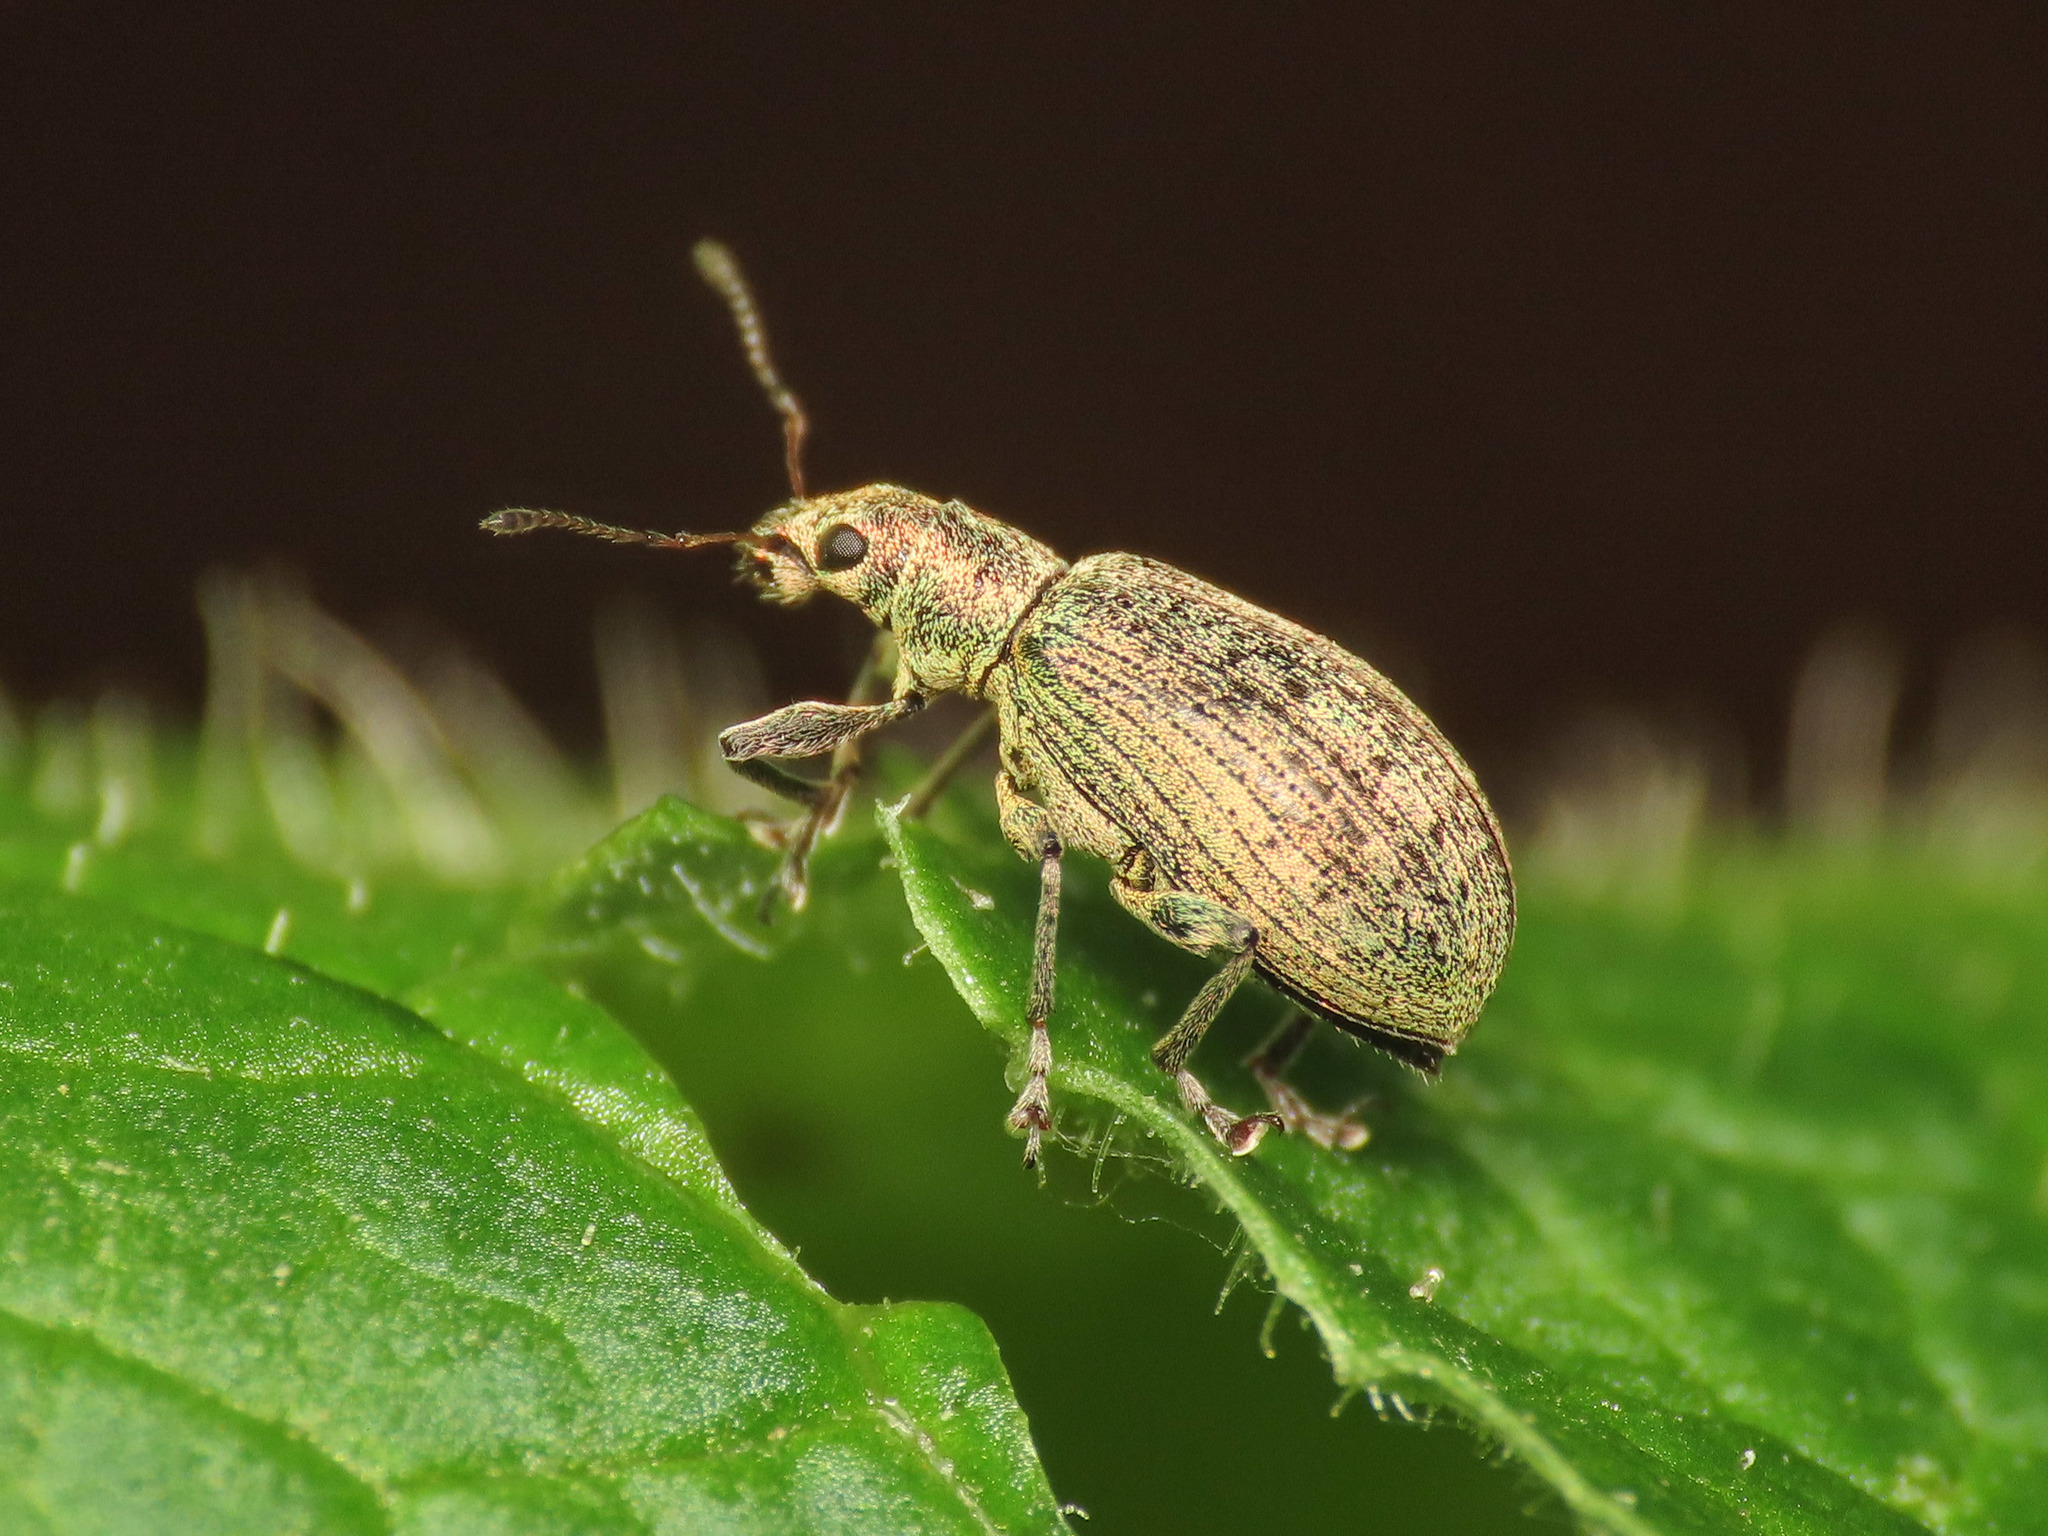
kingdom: Animalia
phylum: Arthropoda
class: Insecta
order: Coleoptera
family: Curculionidae
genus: Polydrusus
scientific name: Polydrusus cervinus
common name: Weevil
